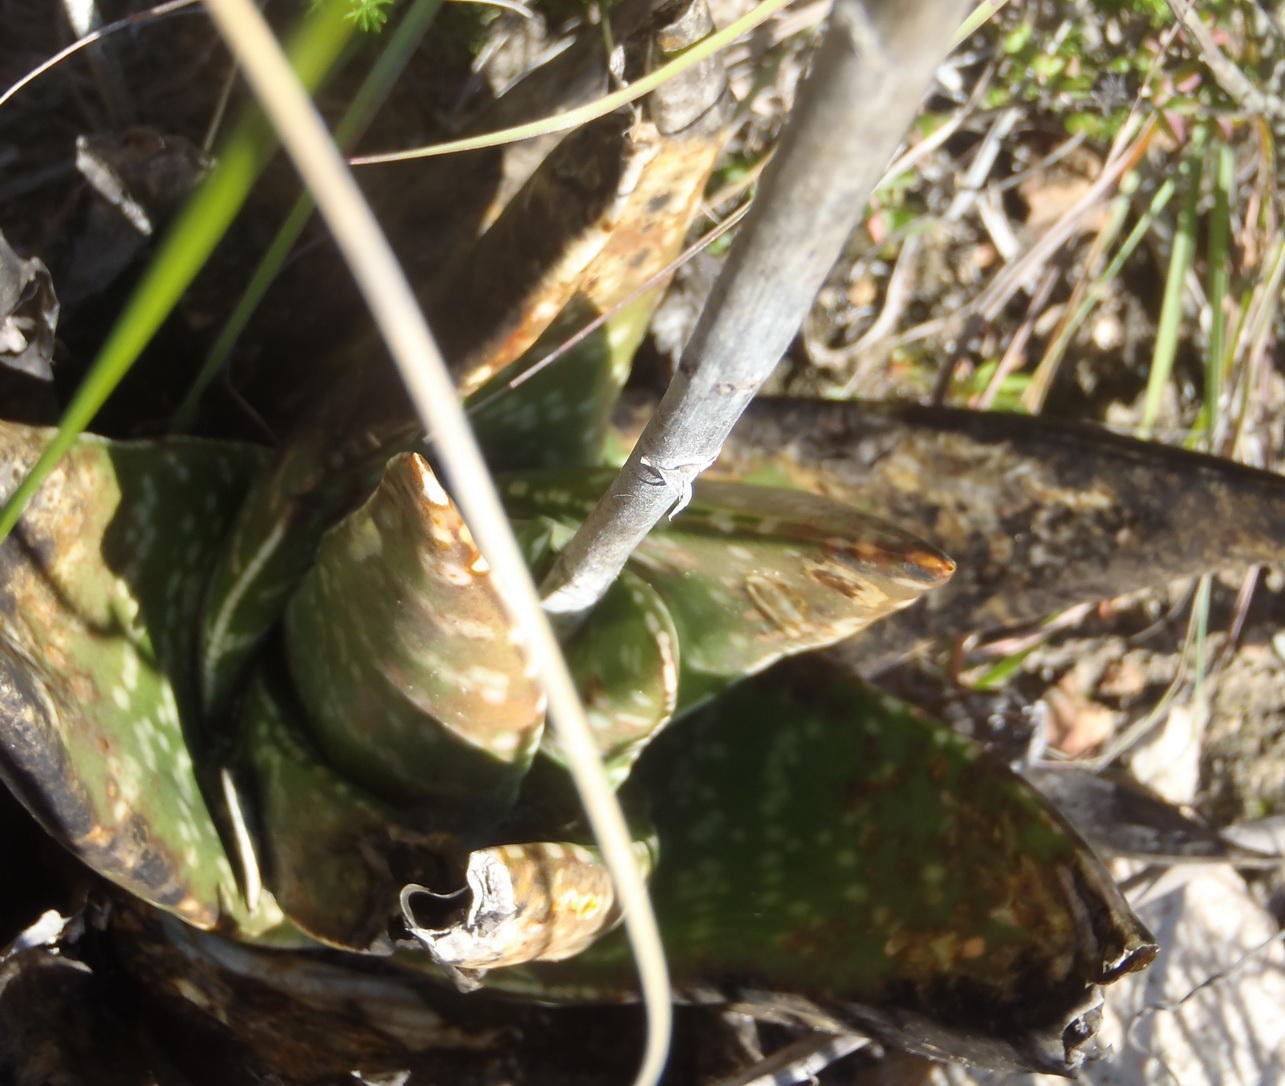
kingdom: Plantae
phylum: Tracheophyta
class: Liliopsida
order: Asparagales
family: Asphodelaceae
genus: Gasteria
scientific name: Gasteria nitida
